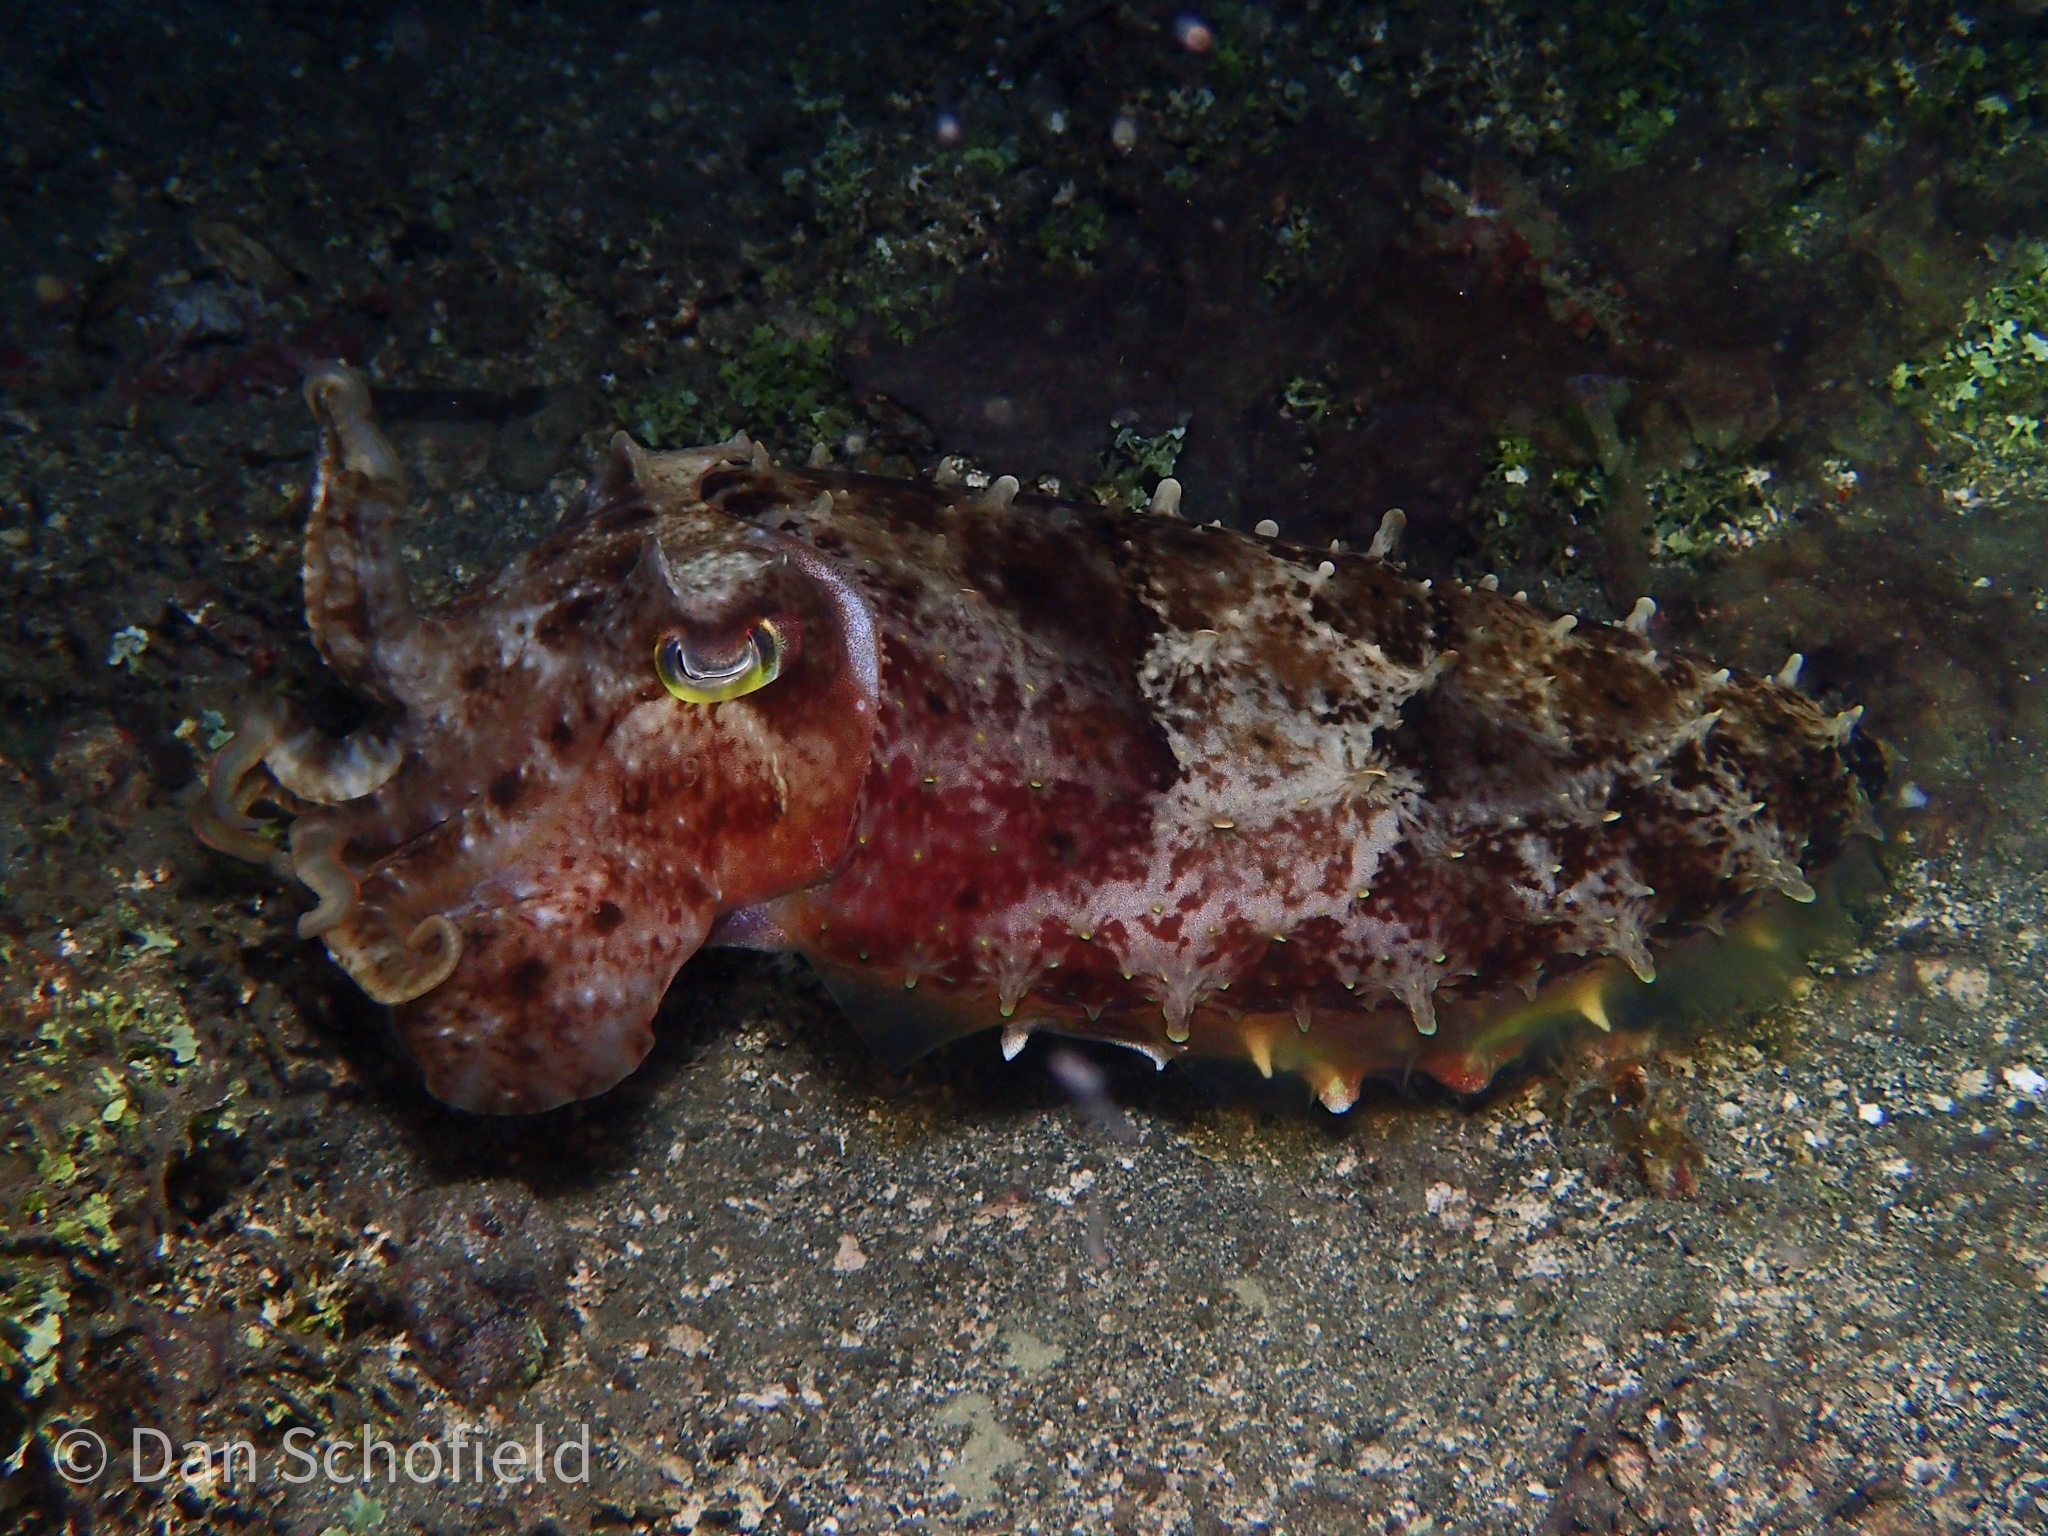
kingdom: Animalia
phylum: Mollusca
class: Cephalopoda
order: Sepiida
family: Sepiidae
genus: Ascarosepion
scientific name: Ascarosepion latimanus
